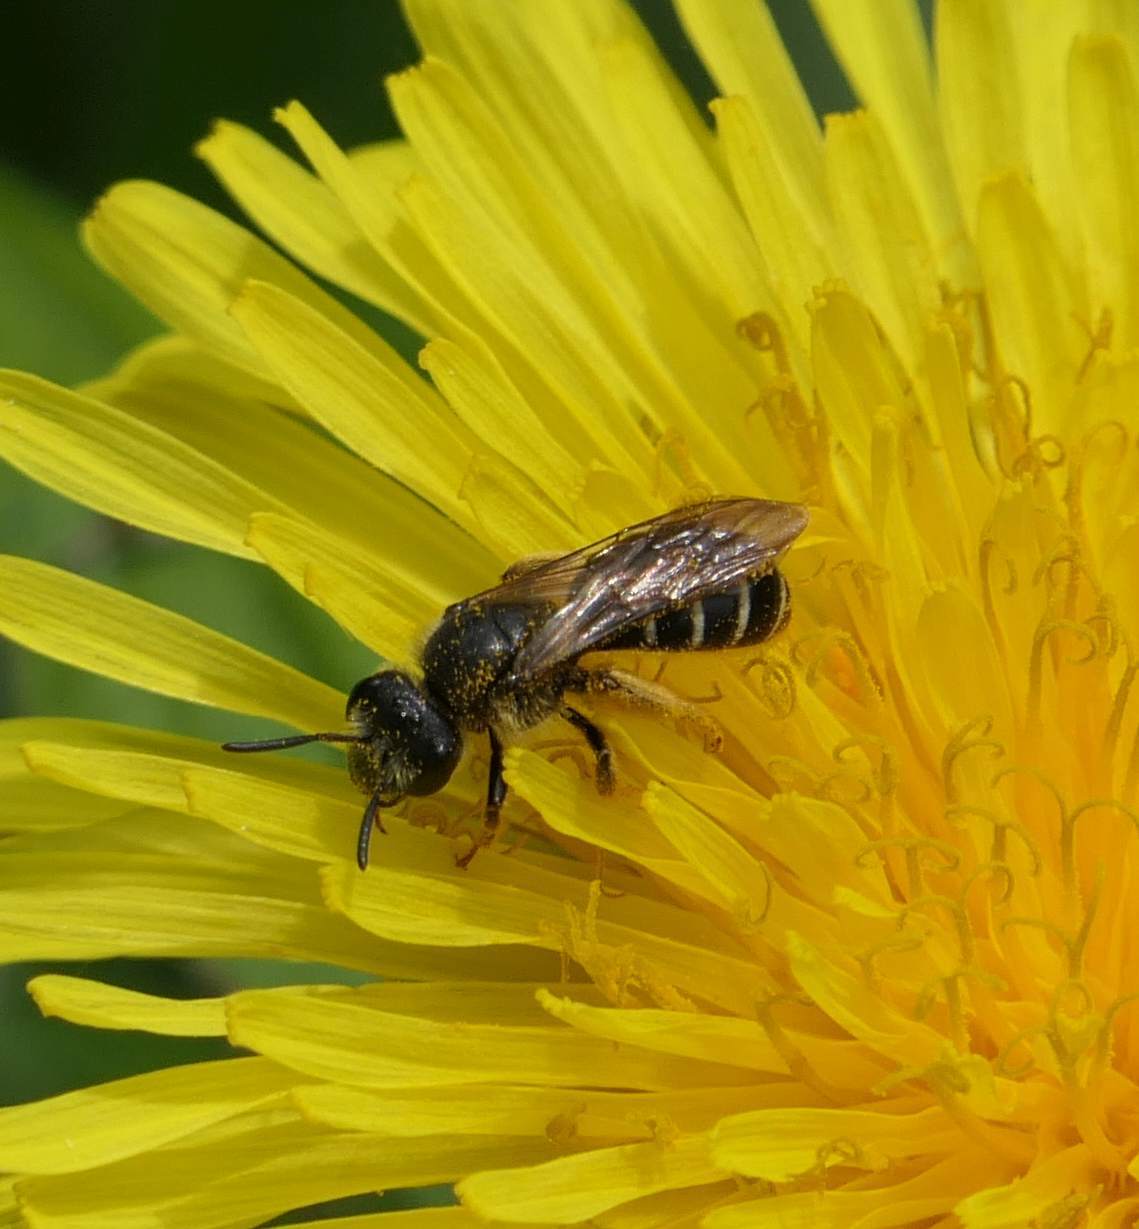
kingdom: Animalia
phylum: Arthropoda
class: Insecta
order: Hymenoptera
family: Halictidae
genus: Halictus
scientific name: Halictus rubicundus
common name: Orange-legged furrow bee
